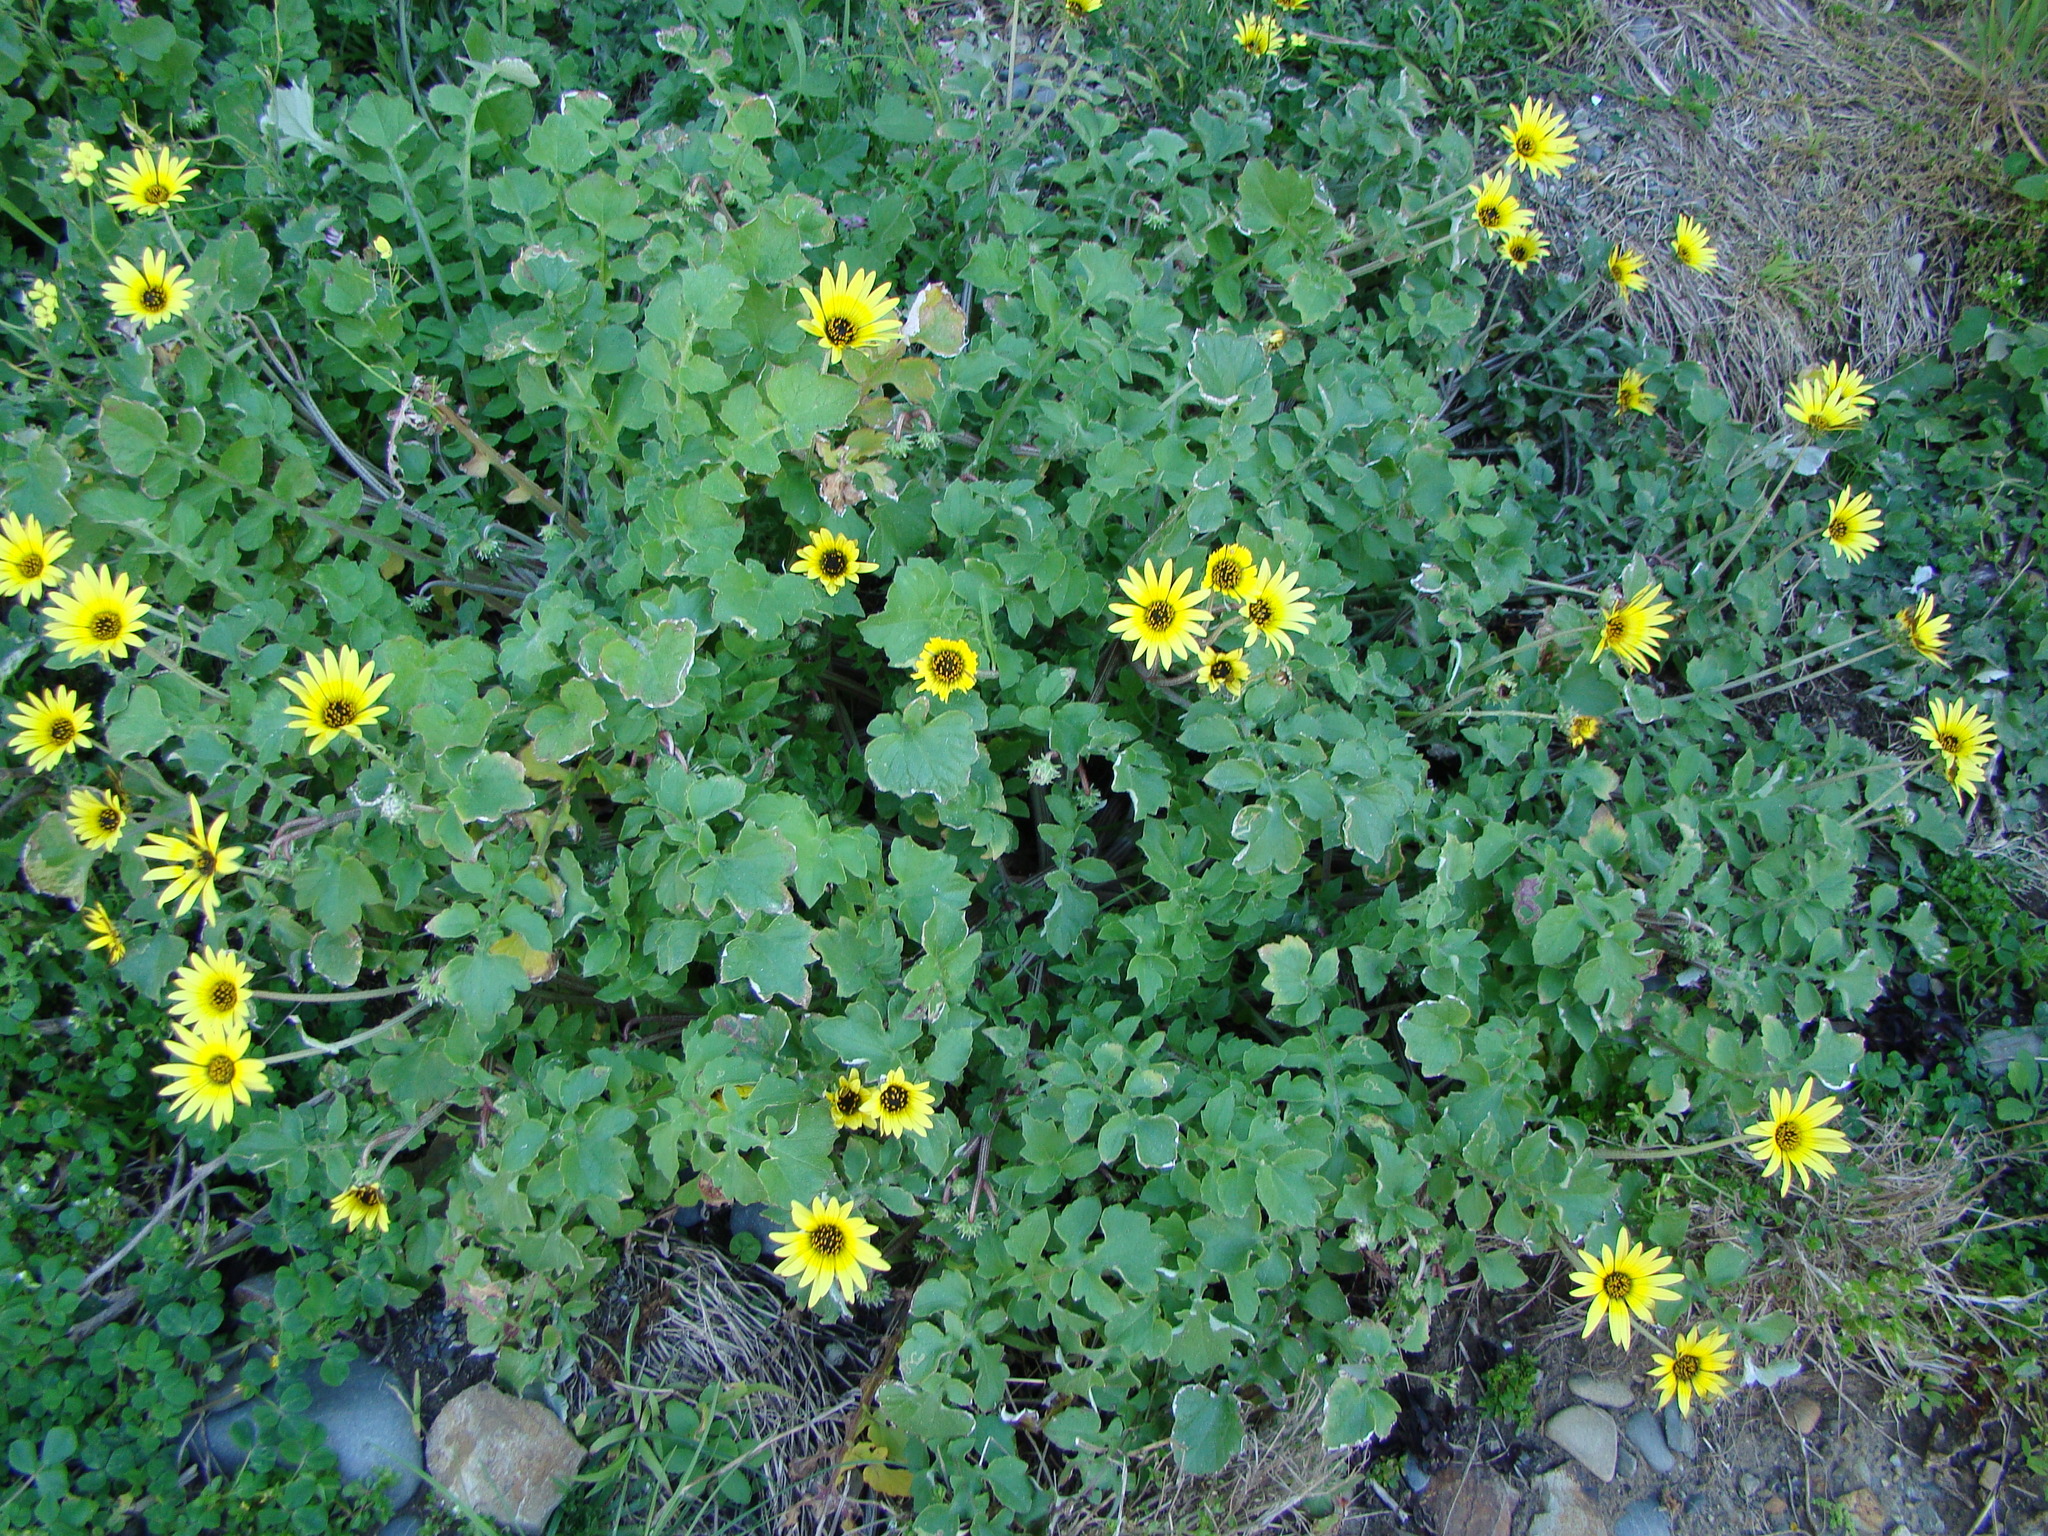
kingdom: Plantae
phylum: Tracheophyta
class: Magnoliopsida
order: Asterales
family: Asteraceae
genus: Arctotheca
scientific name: Arctotheca calendula
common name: Capeweed
